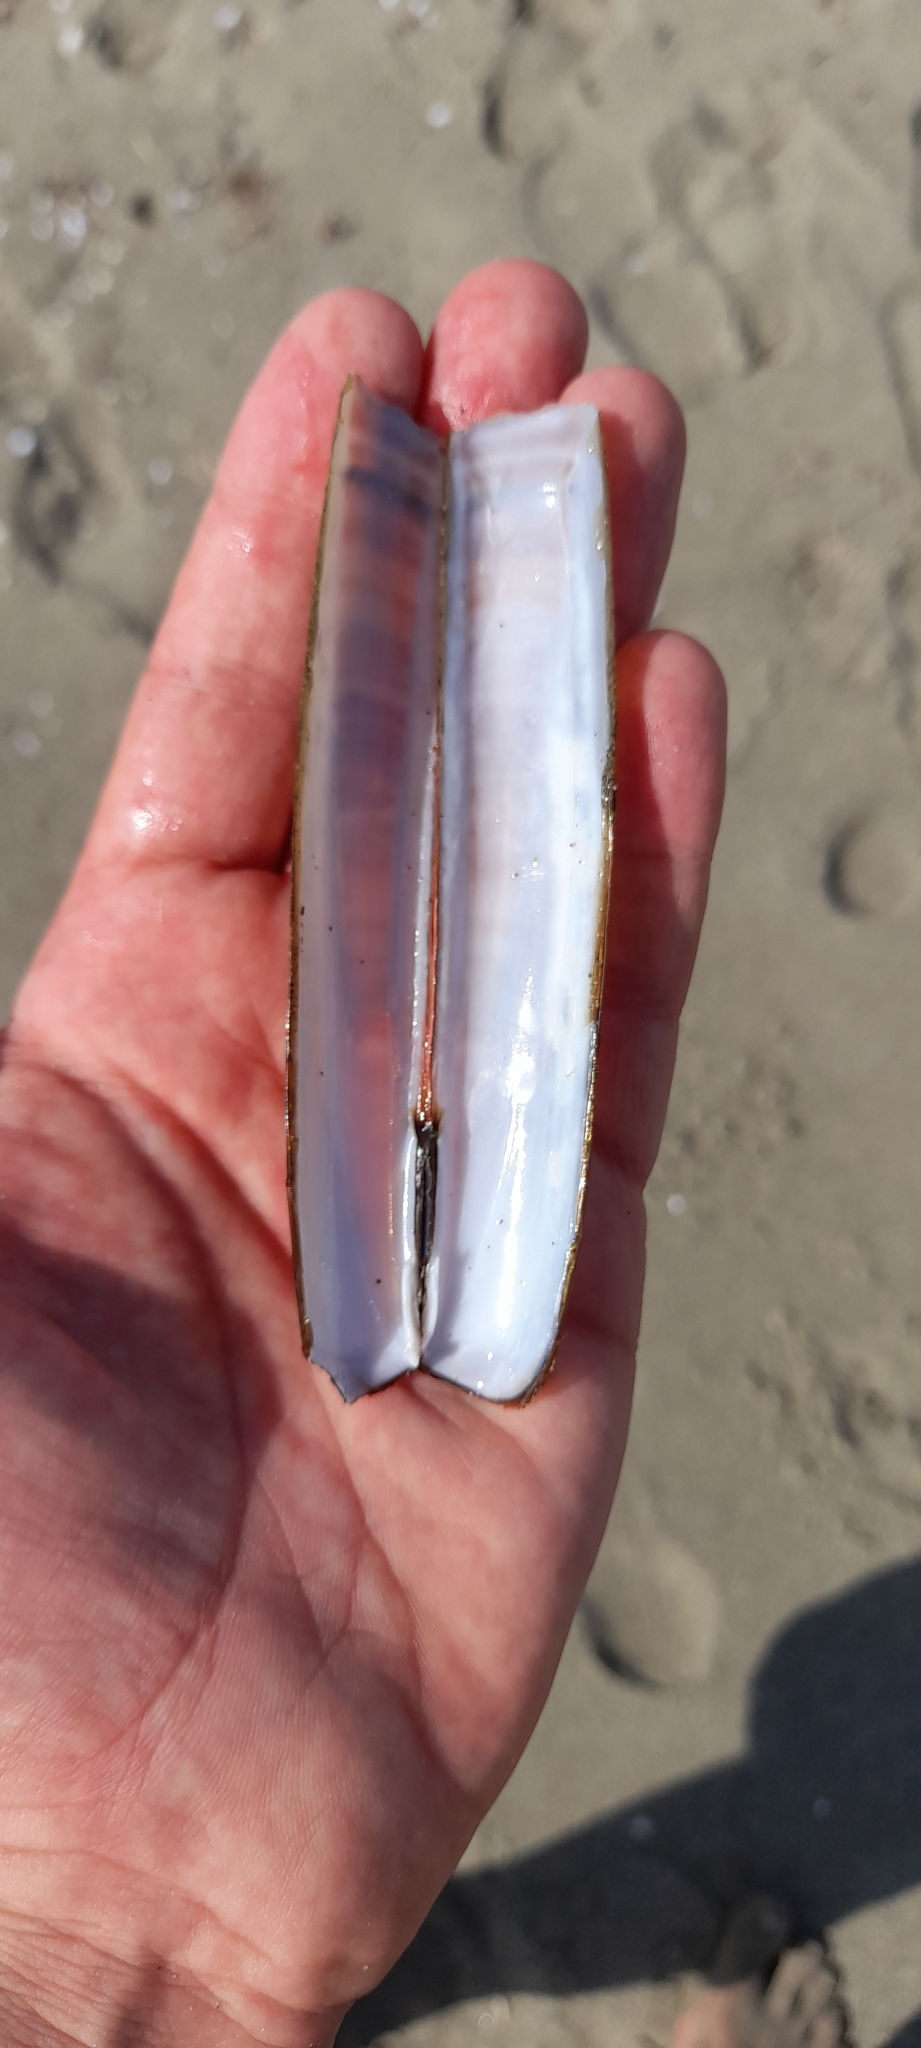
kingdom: Animalia
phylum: Mollusca
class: Bivalvia
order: Adapedonta
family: Pharidae
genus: Ensis
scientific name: Ensis minor
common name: Minor jackknife clam
